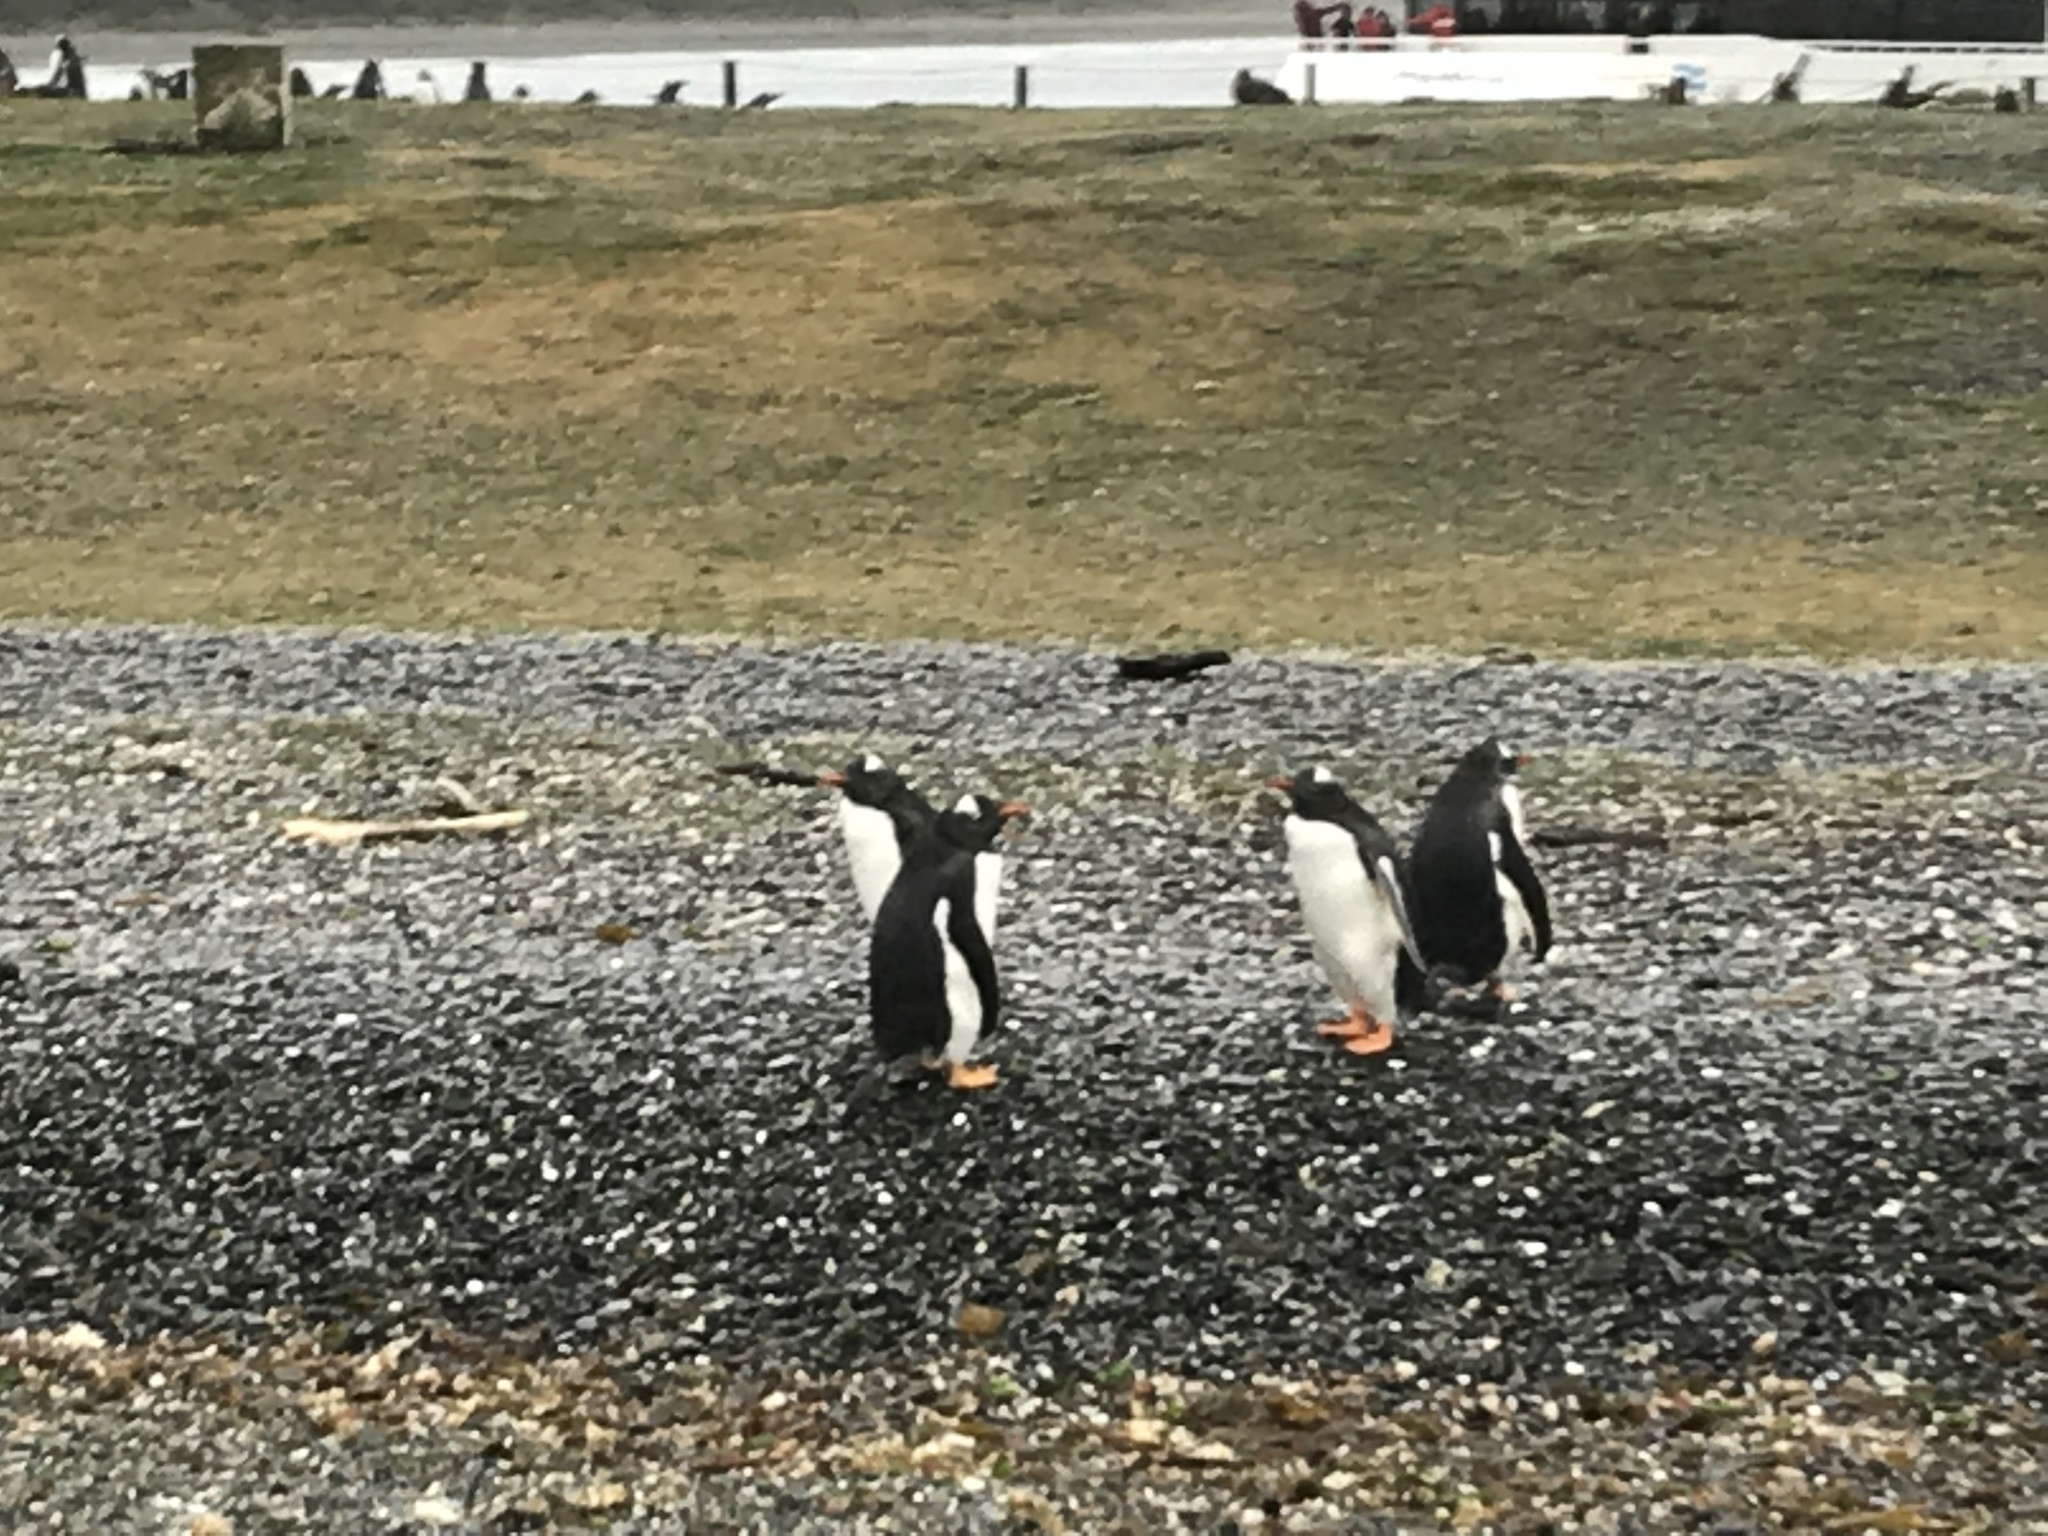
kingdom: Animalia
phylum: Chordata
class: Aves
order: Sphenisciformes
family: Spheniscidae
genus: Pygoscelis
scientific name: Pygoscelis papua
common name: Gentoo penguin
